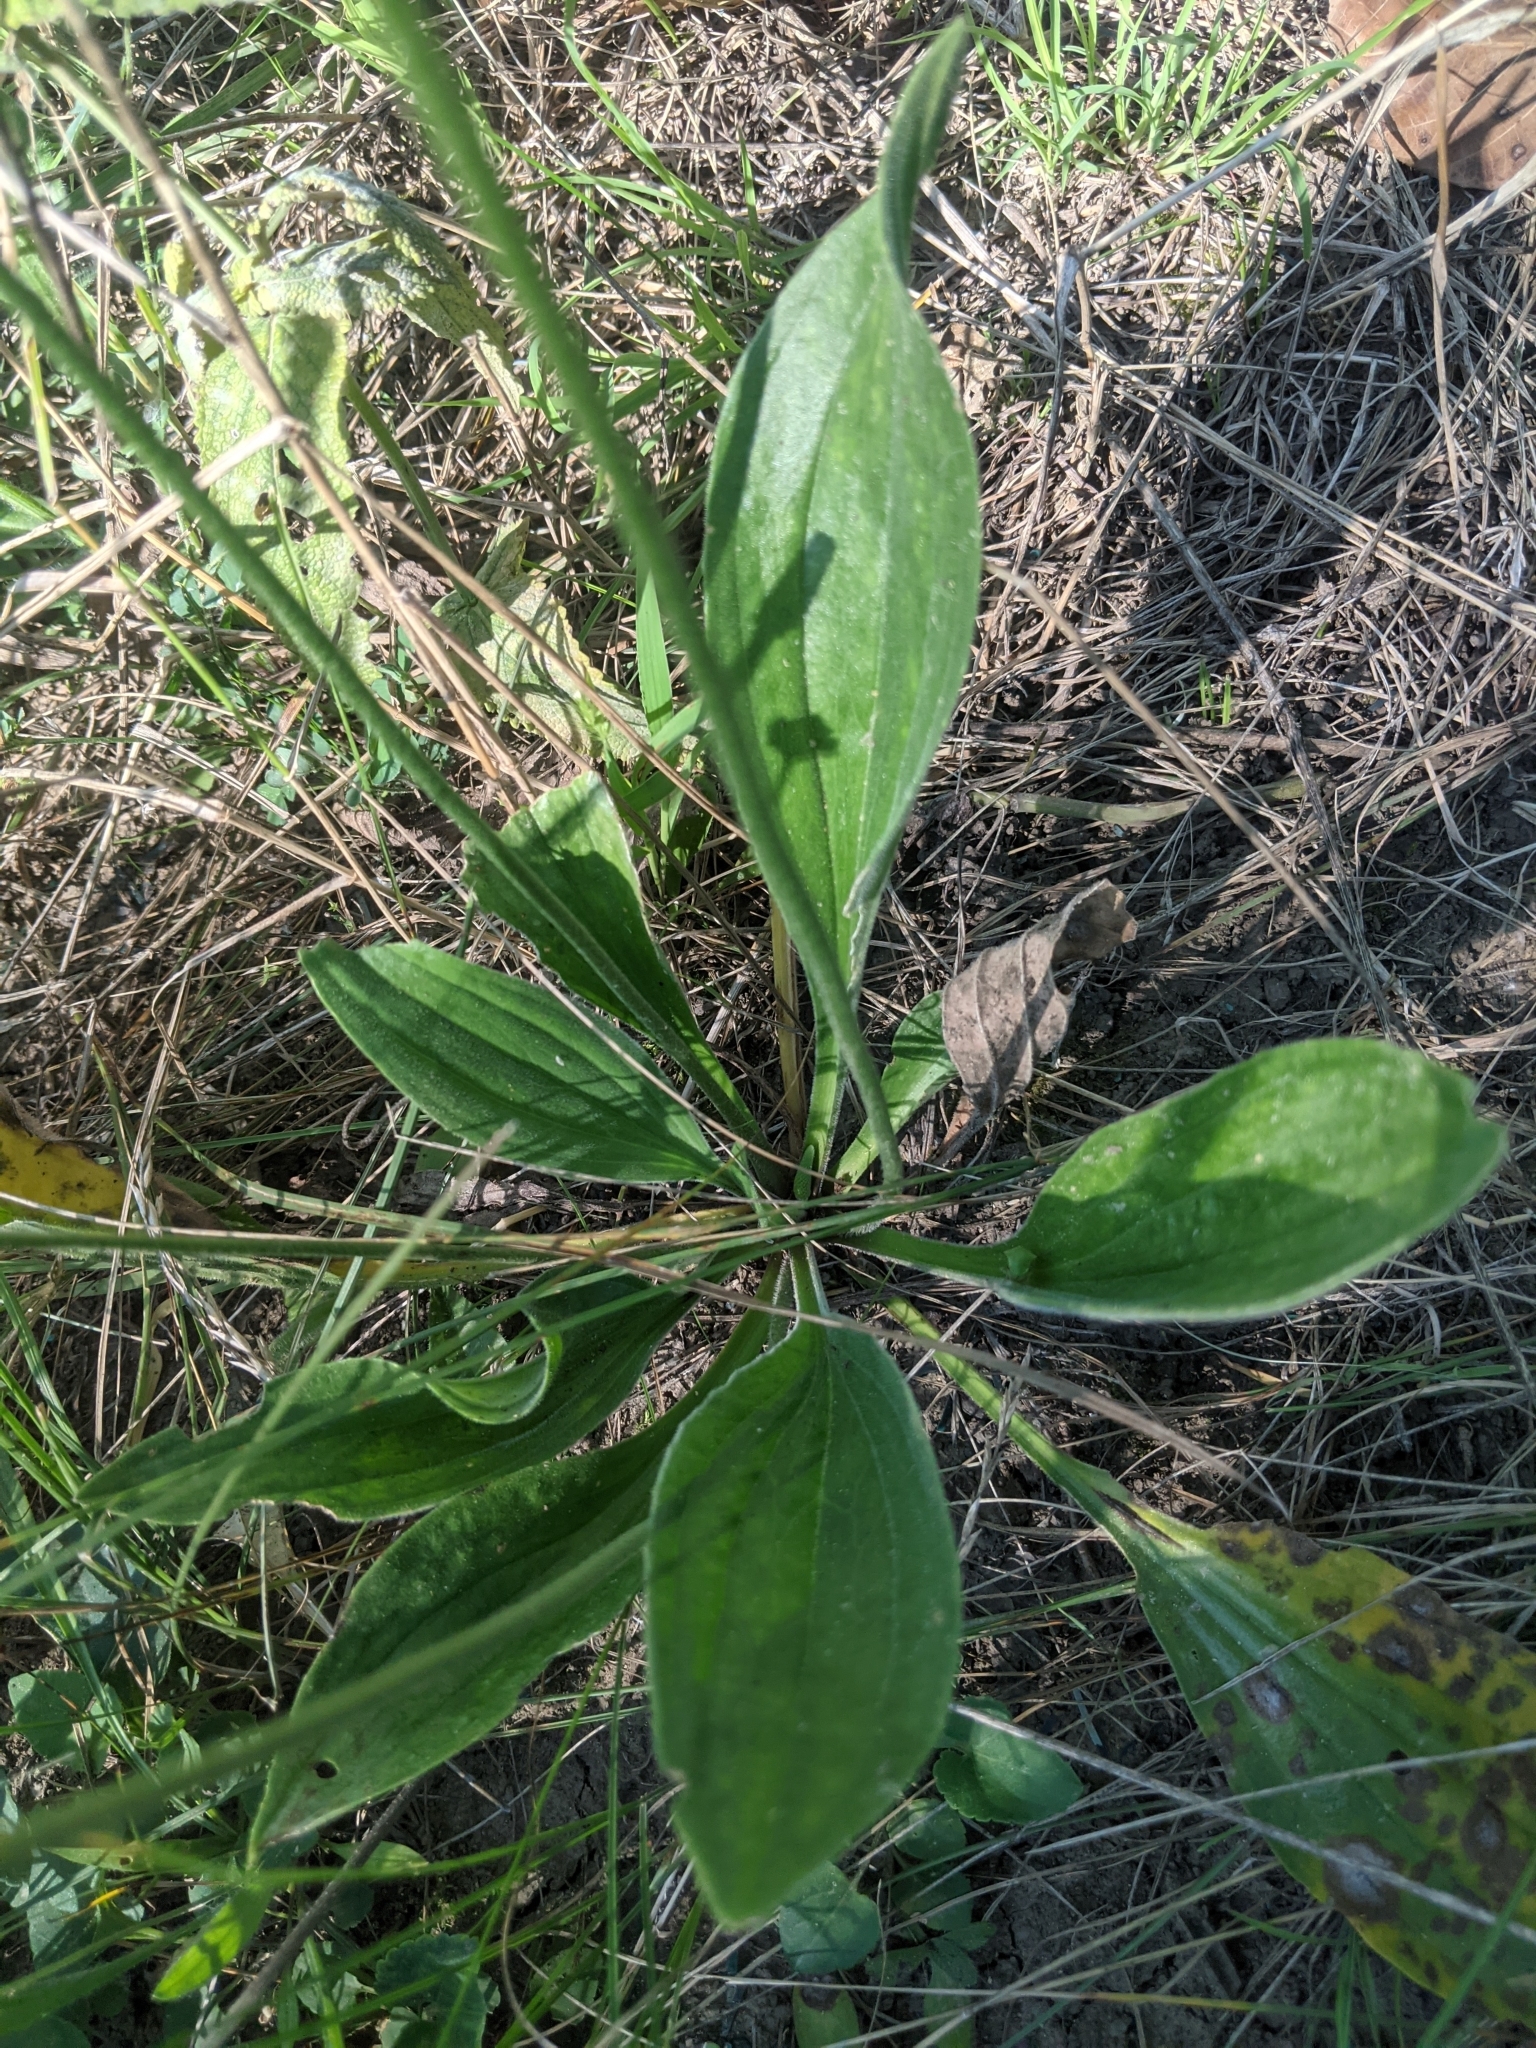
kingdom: Plantae
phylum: Tracheophyta
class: Magnoliopsida
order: Lamiales
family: Plantaginaceae
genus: Plantago
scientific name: Plantago media
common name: Hoary plantain
